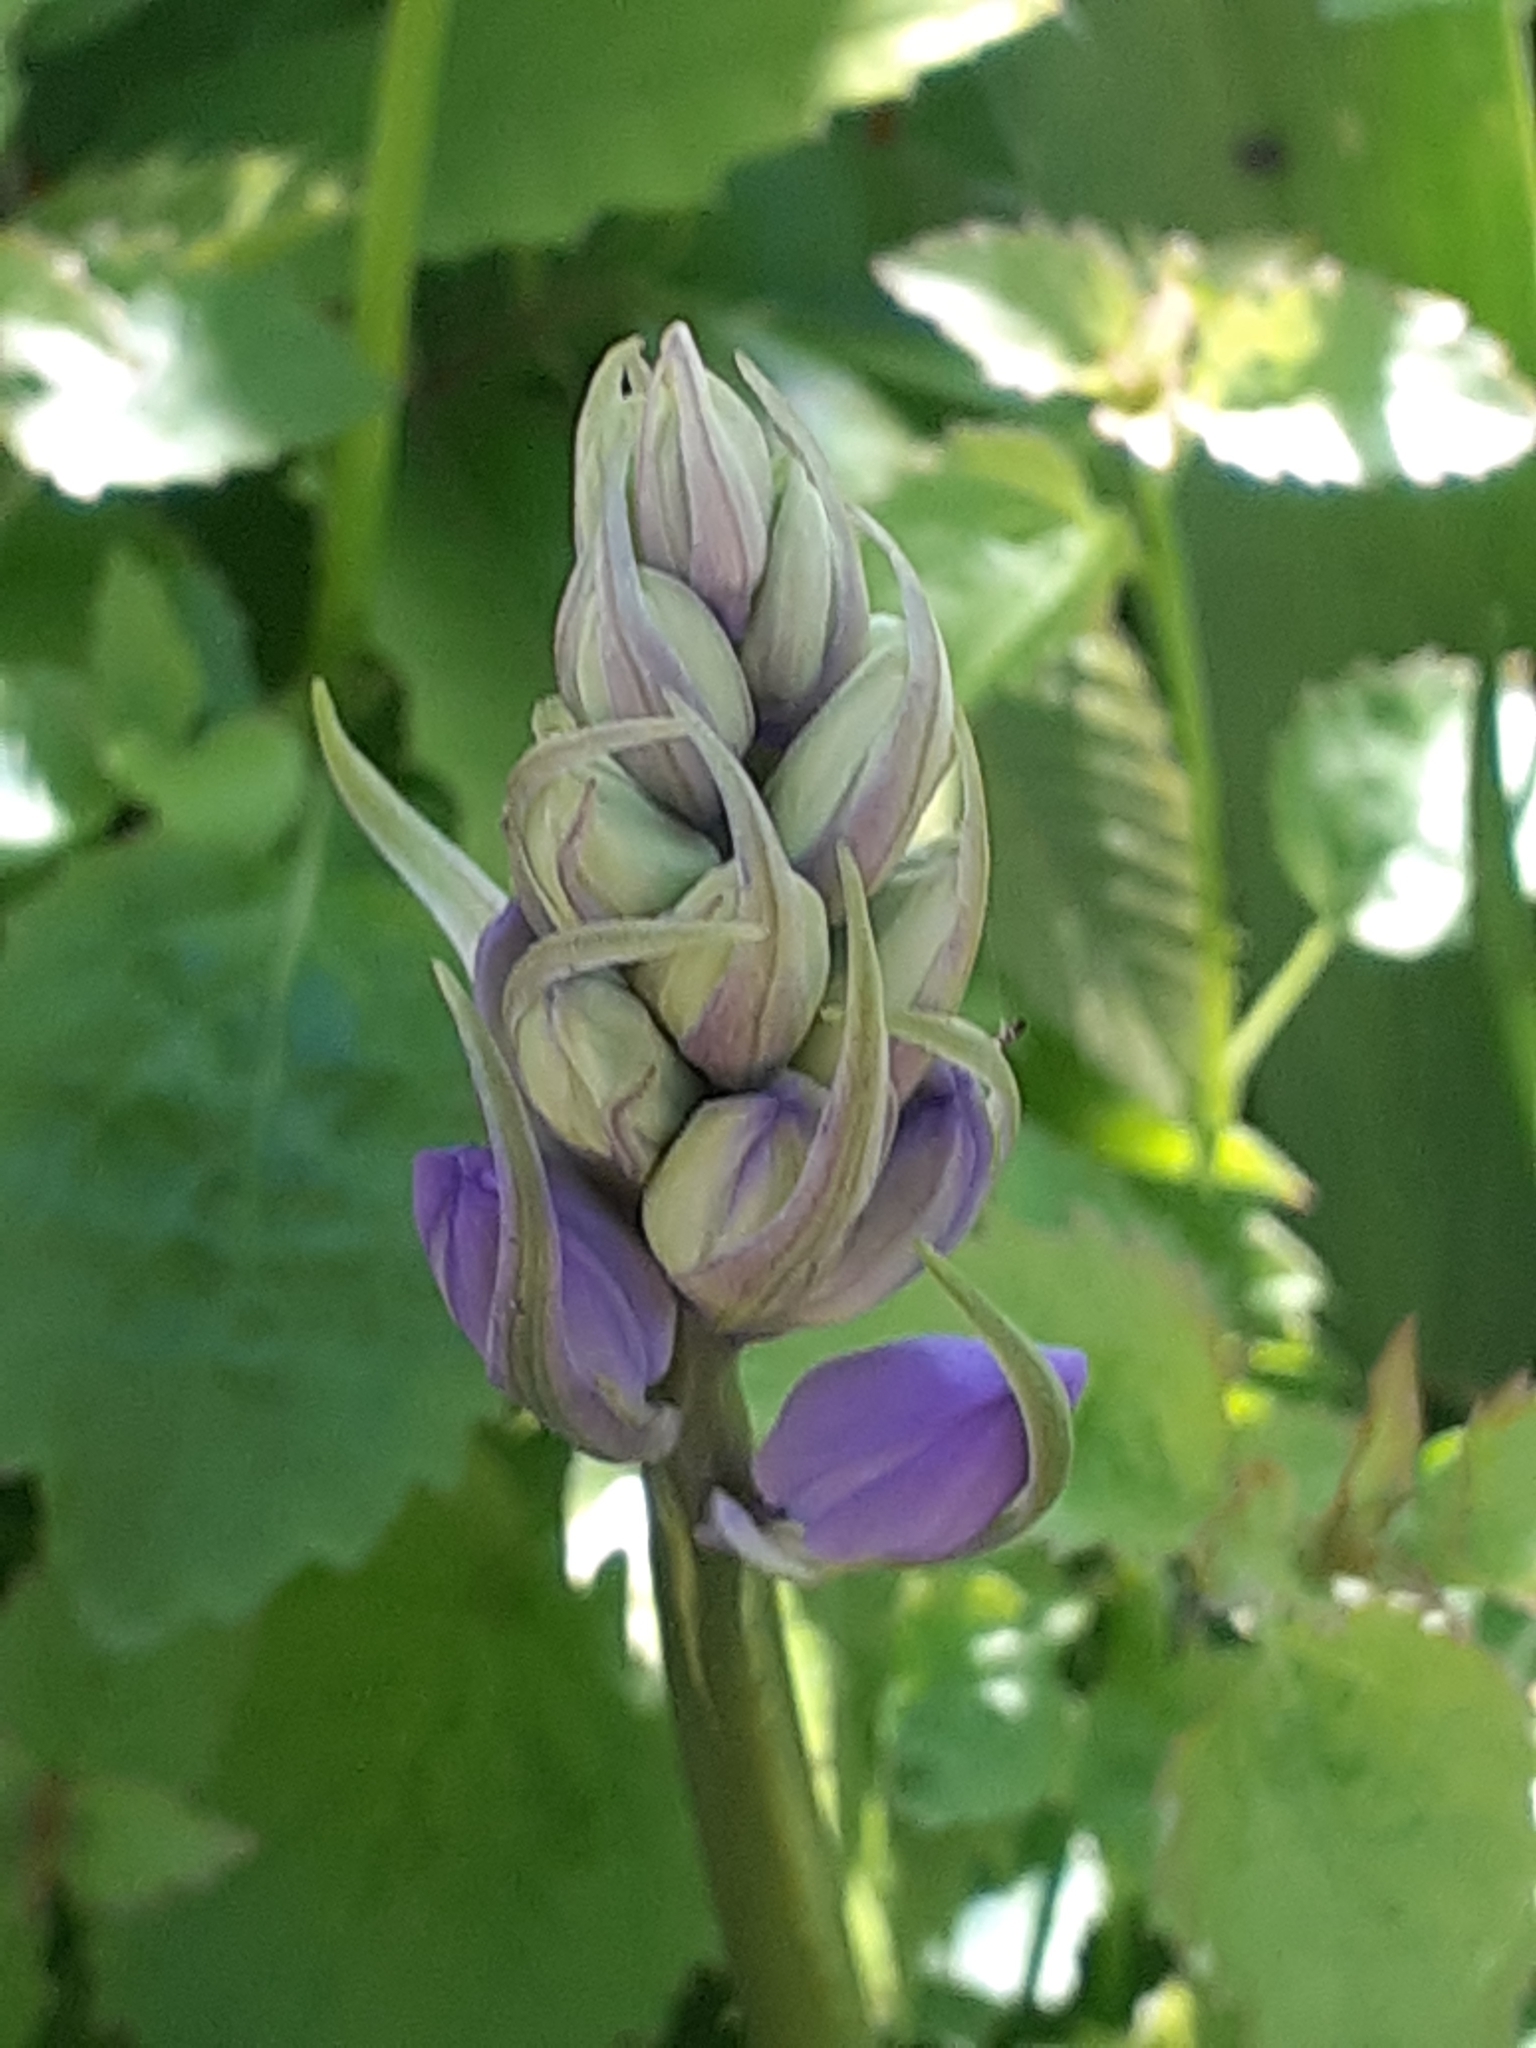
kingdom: Plantae
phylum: Tracheophyta
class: Liliopsida
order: Asparagales
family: Asparagaceae
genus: Hyacinthoides
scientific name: Hyacinthoides hispanica
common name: Spanish bluebell
